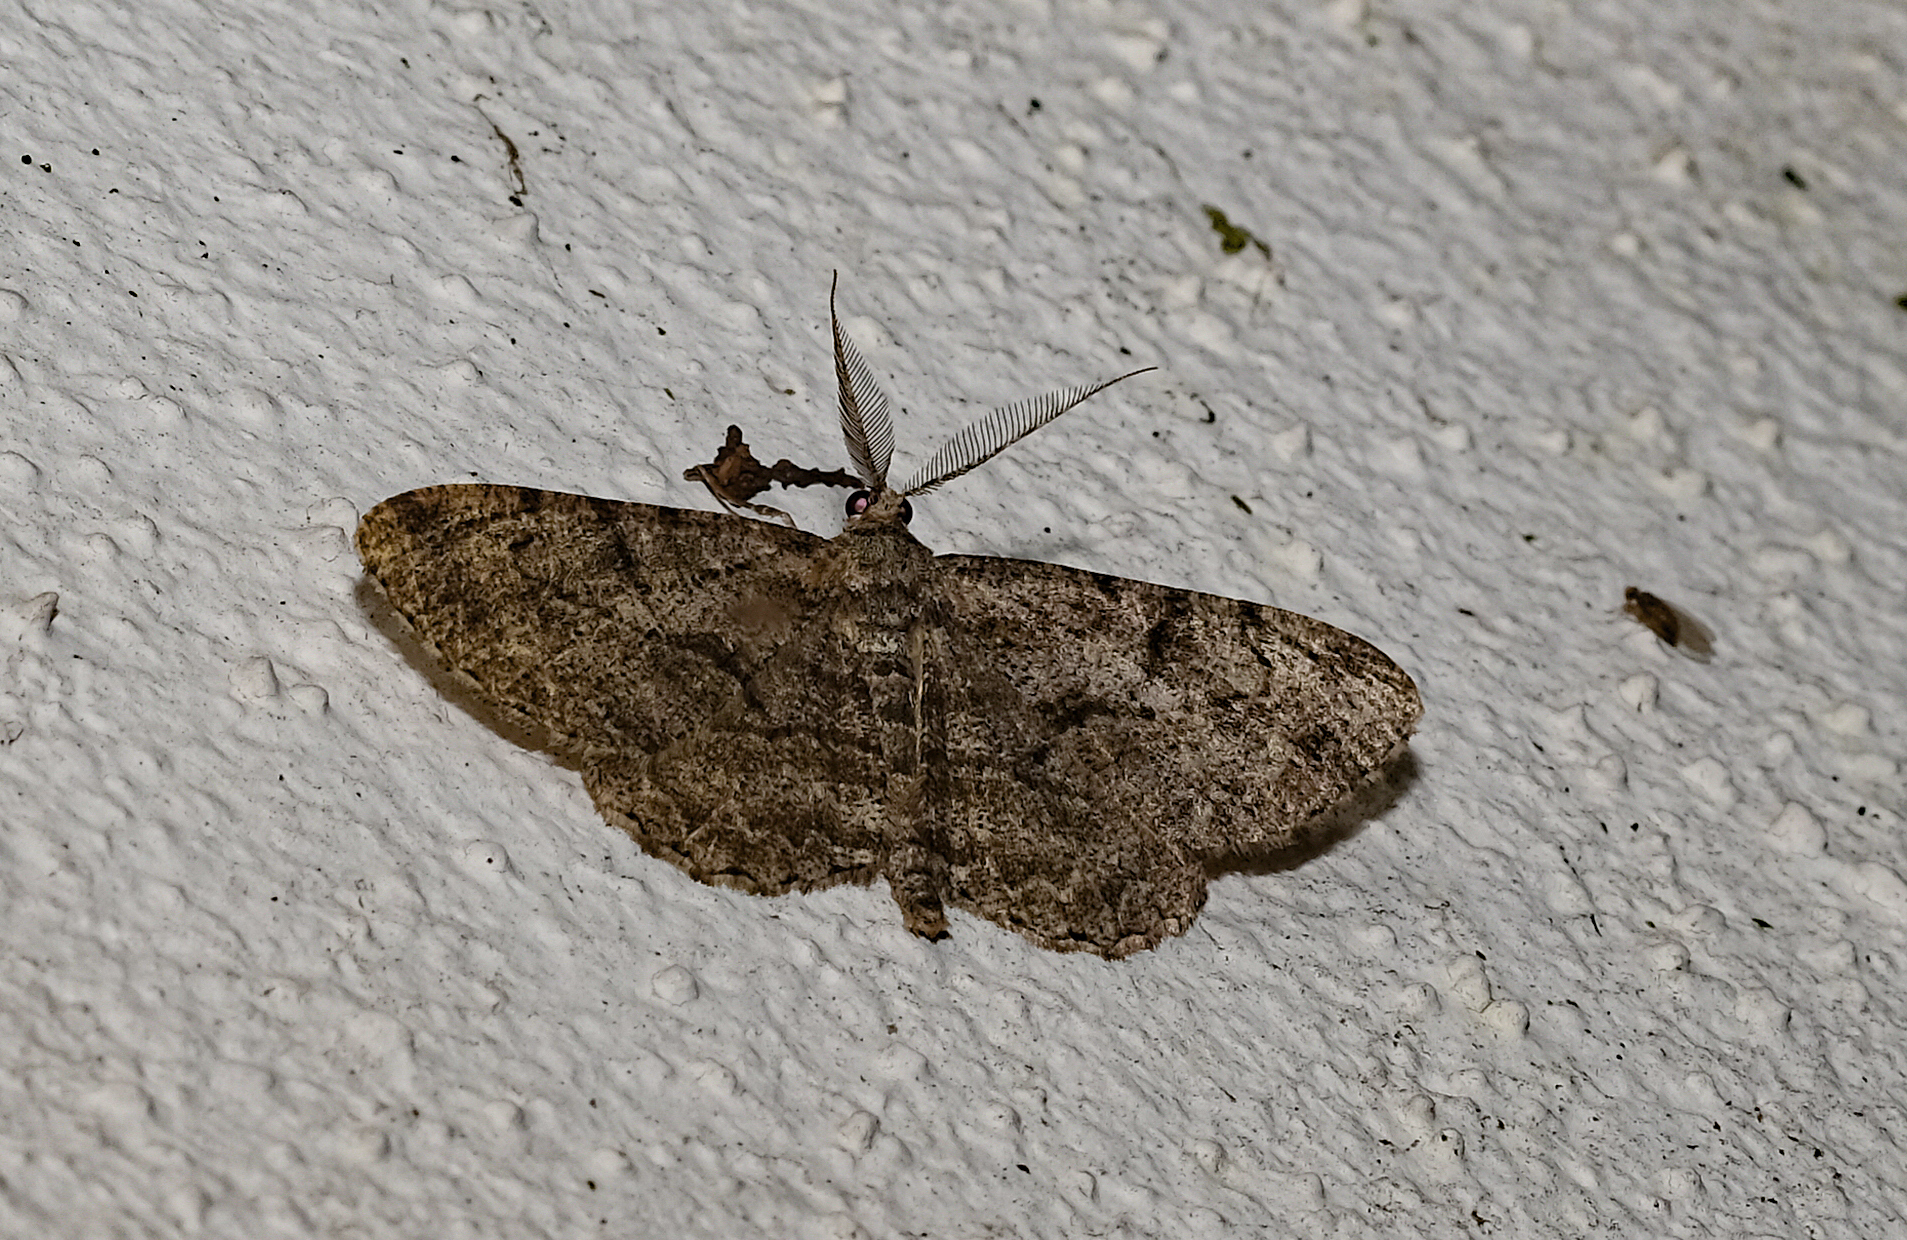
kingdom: Animalia
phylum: Arthropoda
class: Insecta
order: Lepidoptera
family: Geometridae
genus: Peribatodes
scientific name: Peribatodes rhomboidaria
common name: Willow beauty
